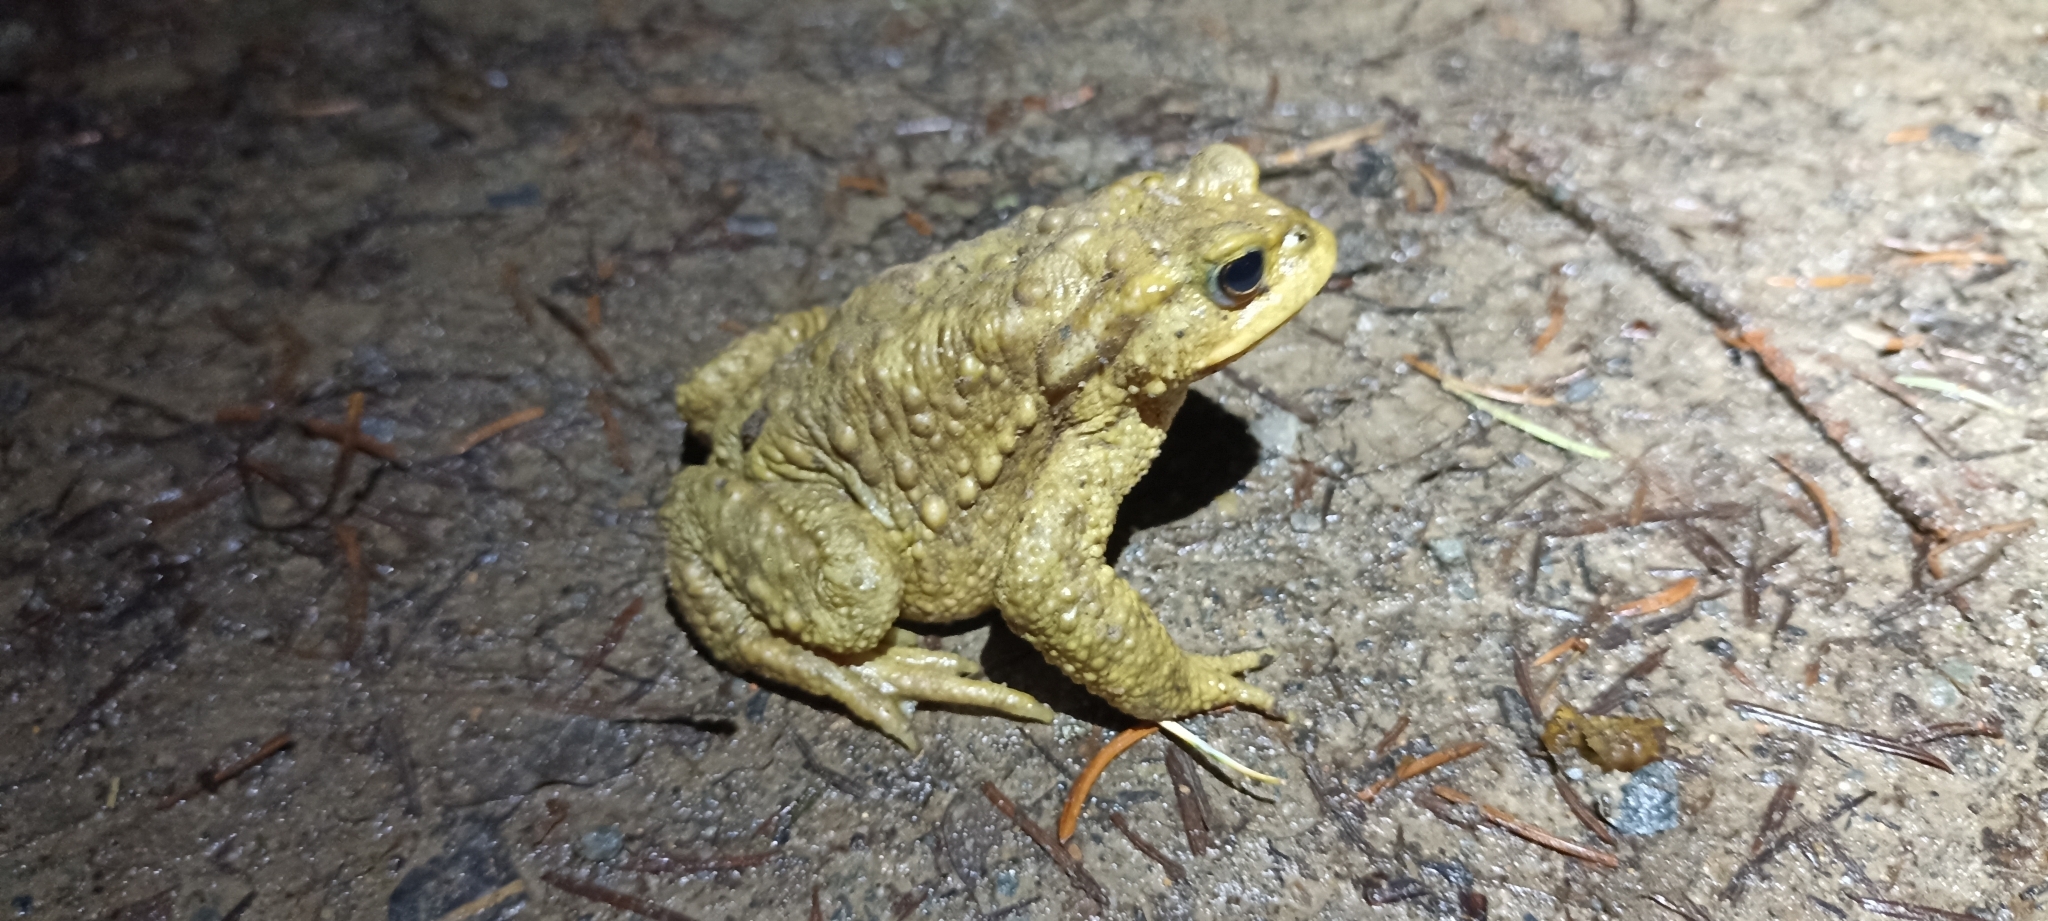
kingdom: Animalia
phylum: Chordata
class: Amphibia
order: Anura
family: Bufonidae
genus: Bufo
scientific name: Bufo spinosus
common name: Western common toad
